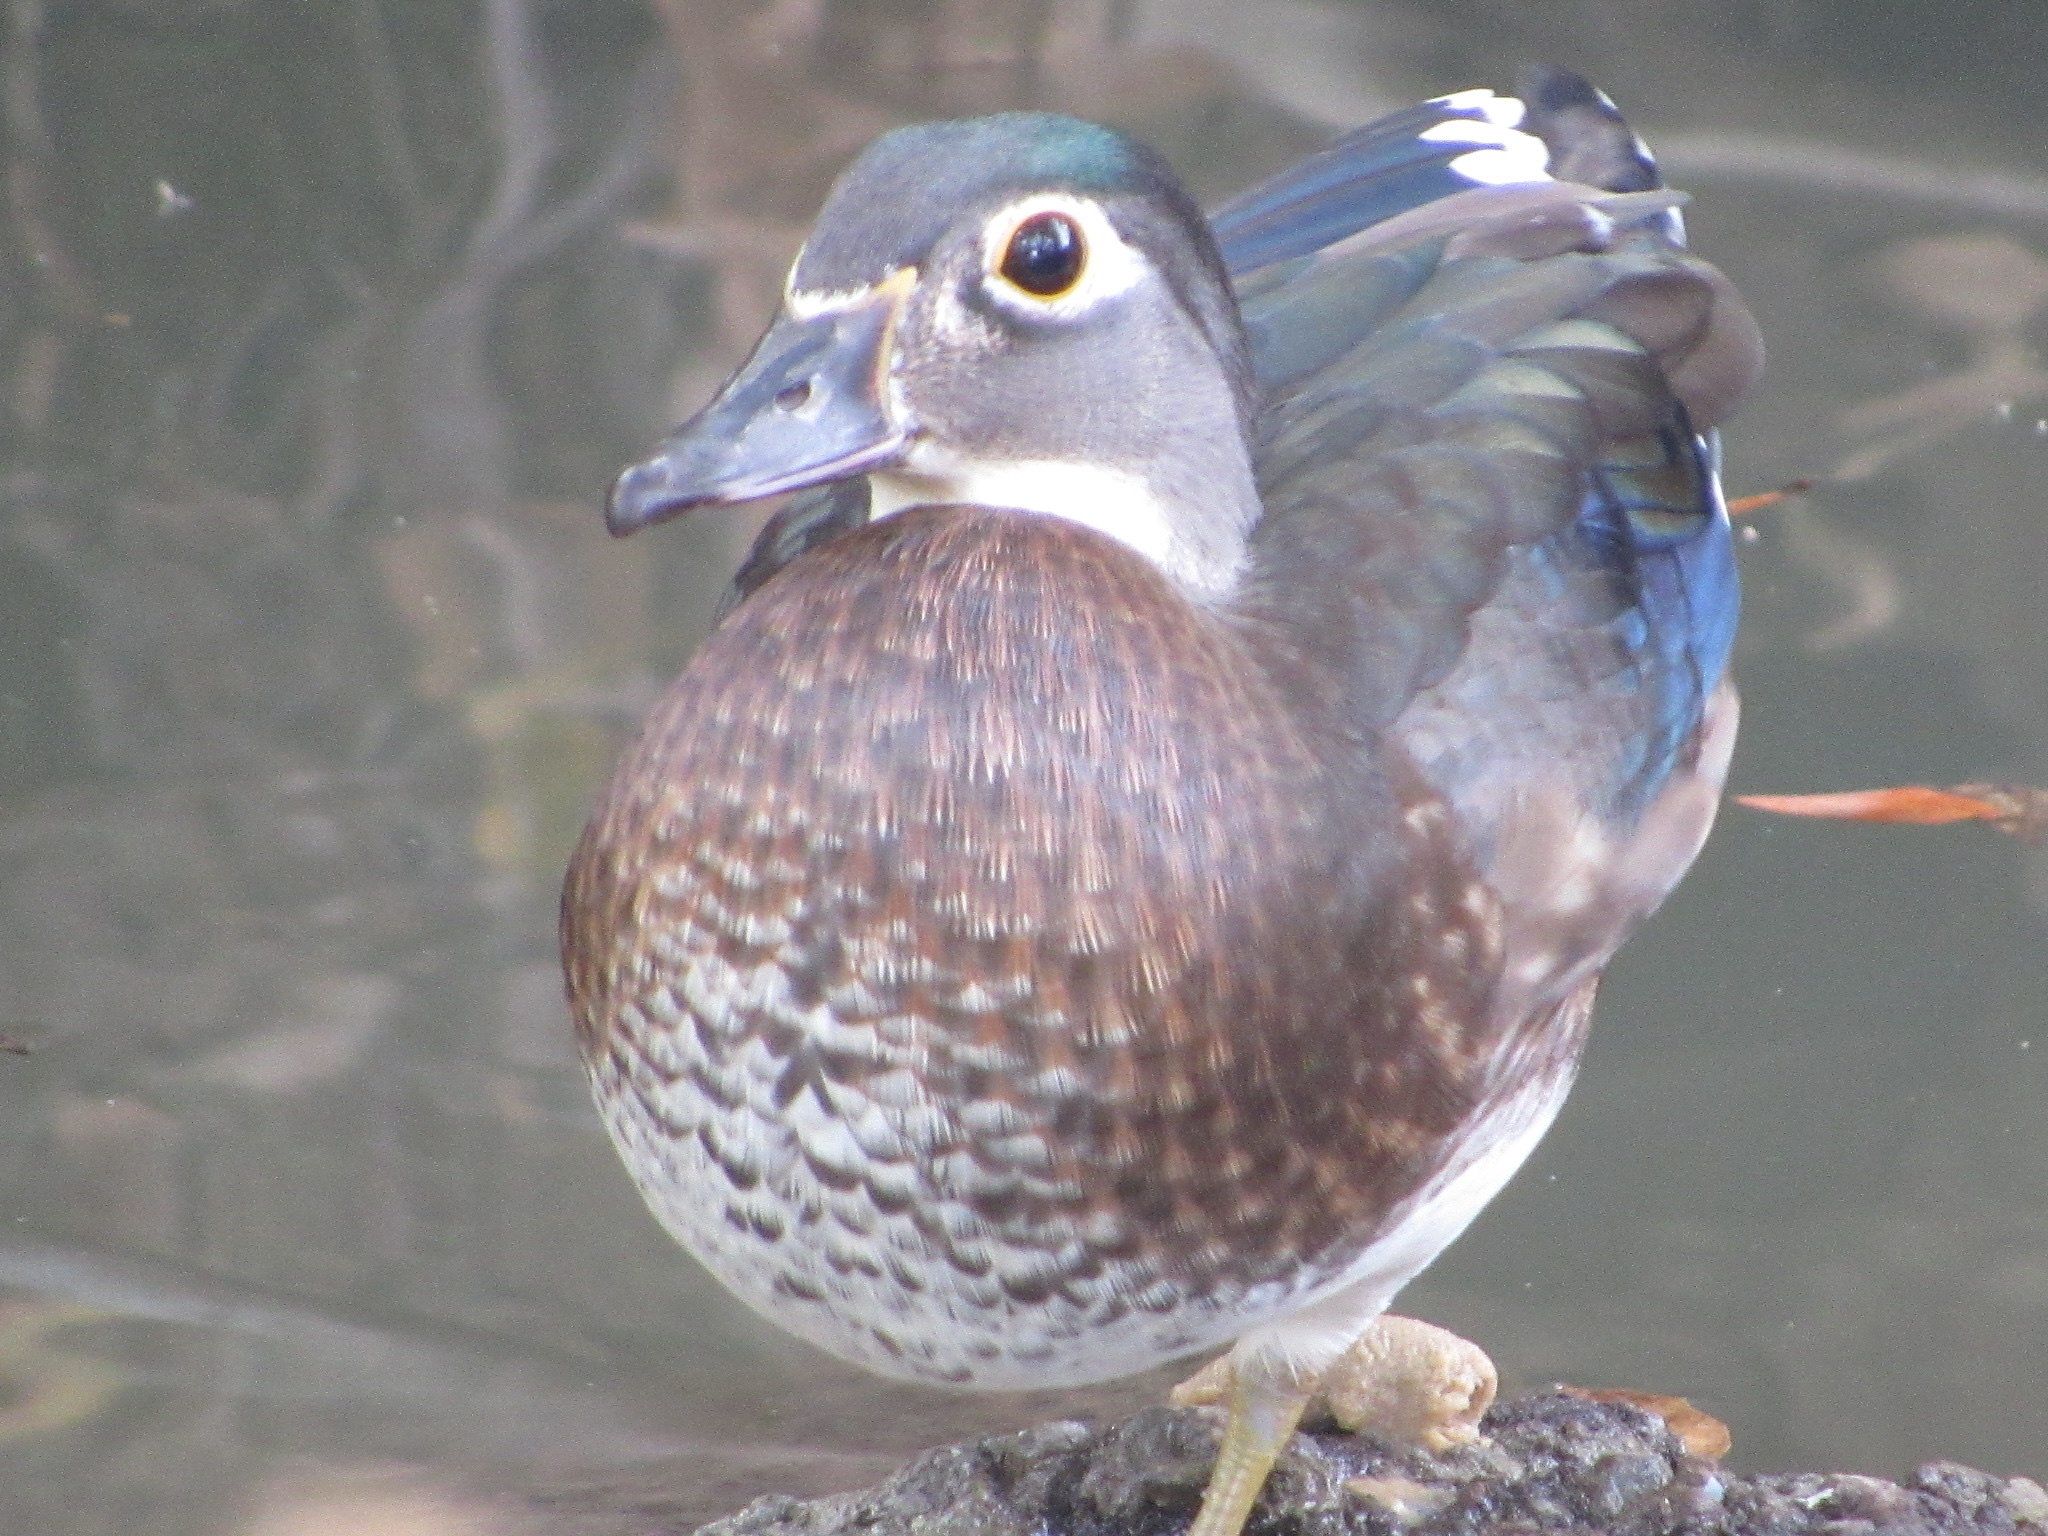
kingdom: Animalia
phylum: Chordata
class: Aves
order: Anseriformes
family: Anatidae
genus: Aix
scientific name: Aix sponsa
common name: Wood duck
